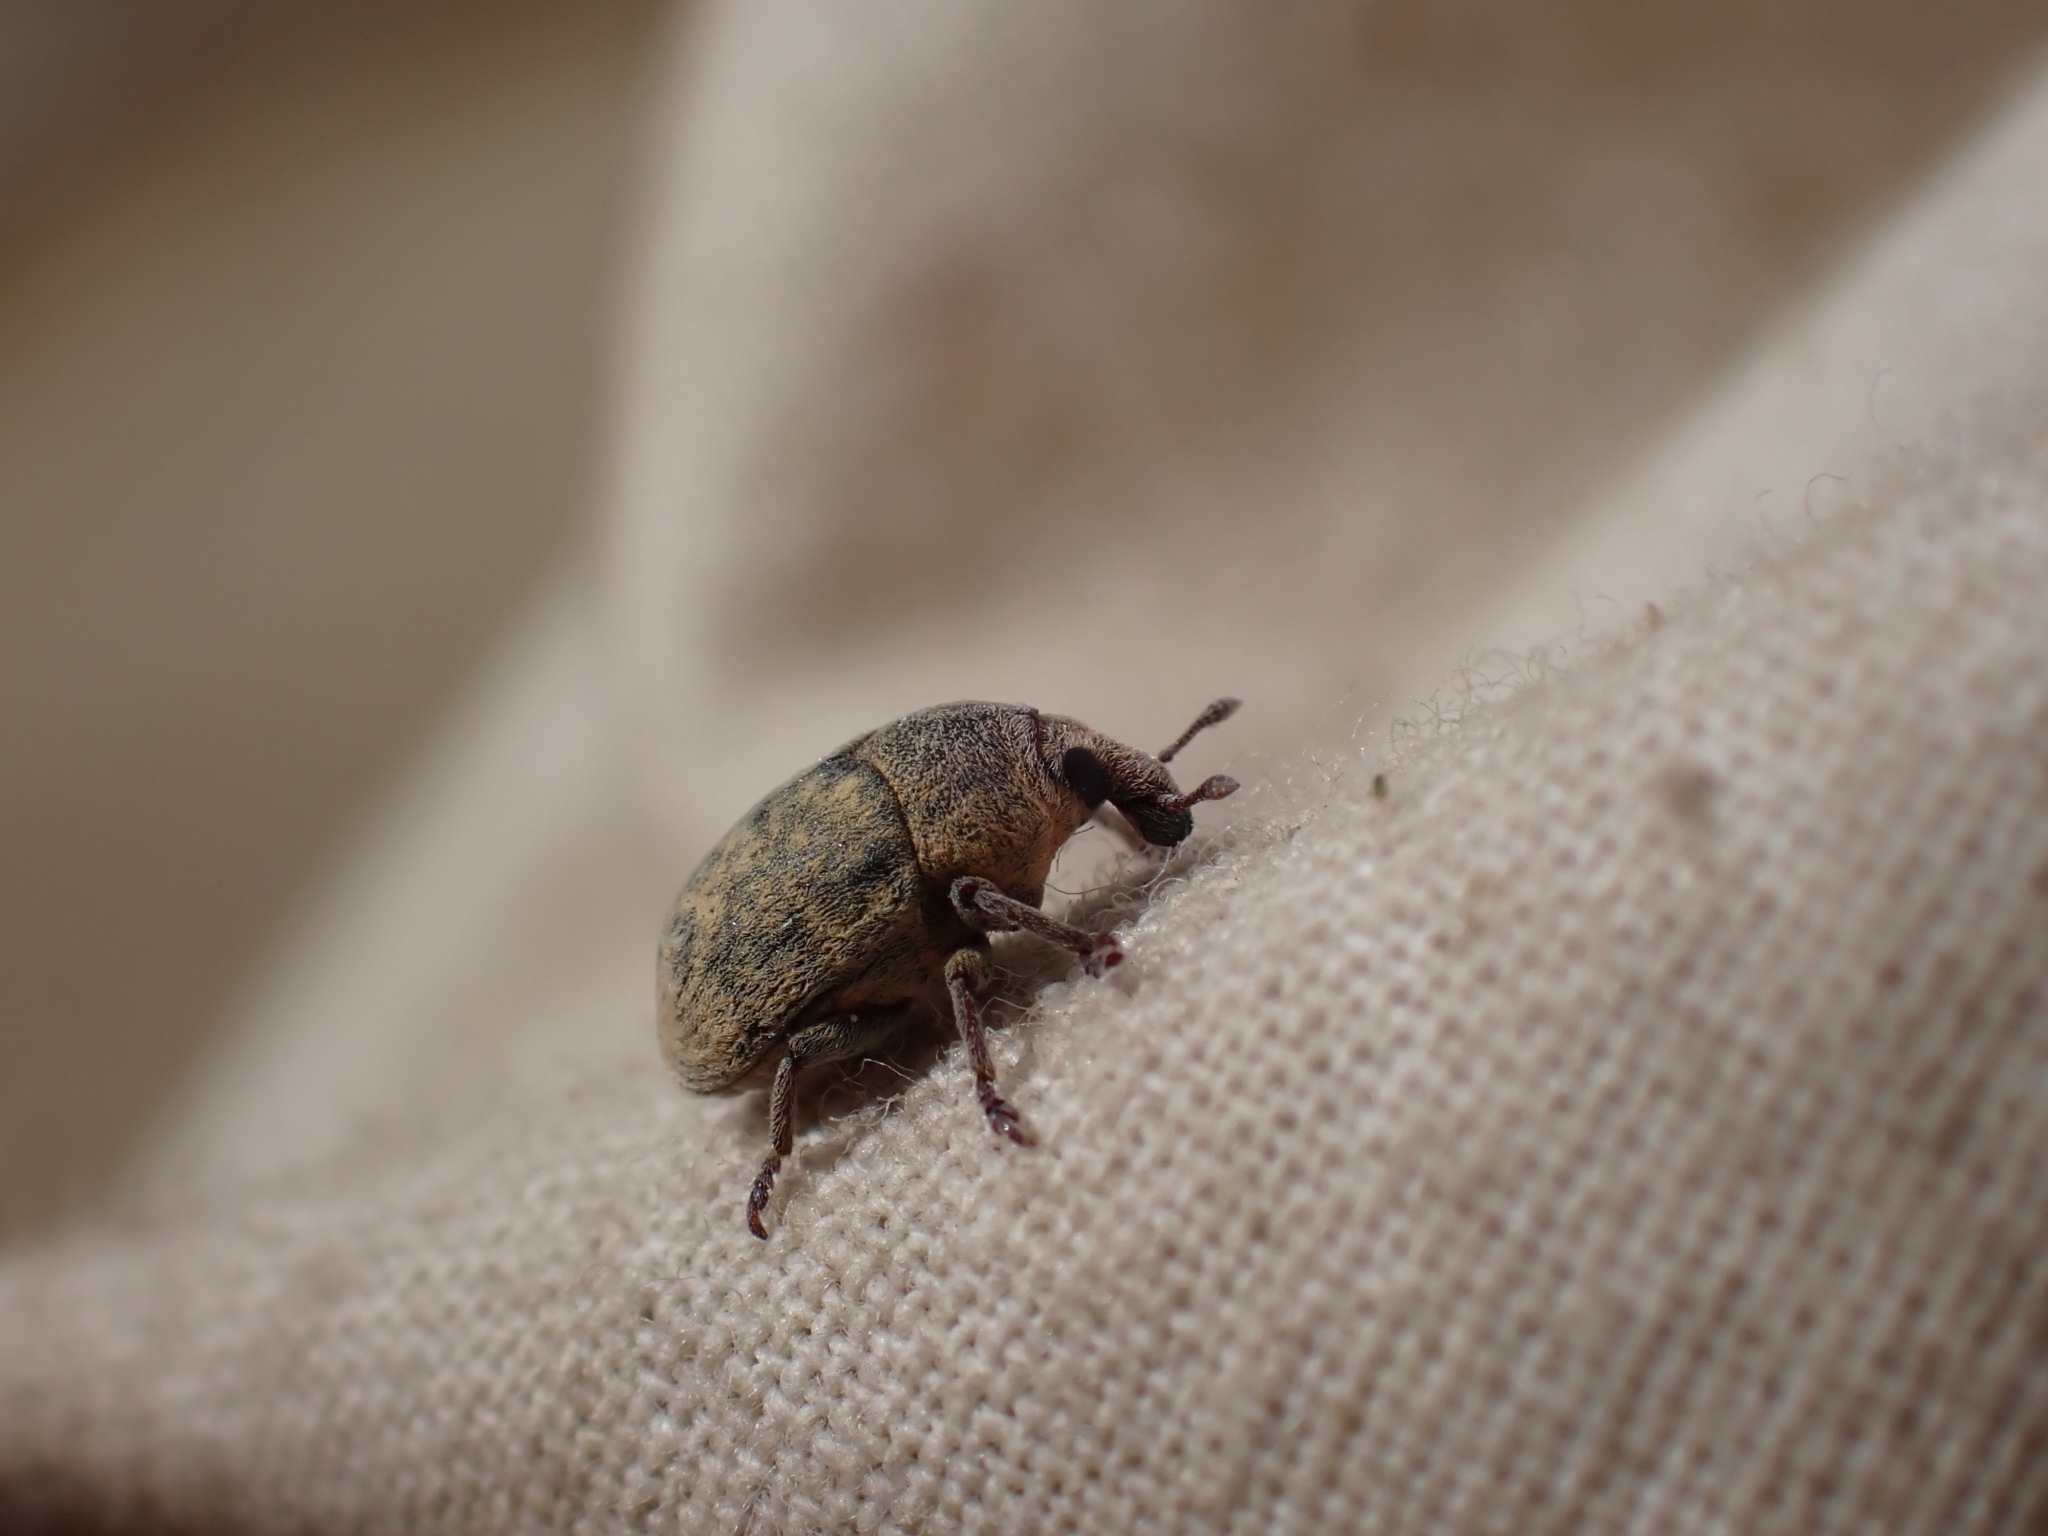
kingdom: Animalia
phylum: Arthropoda
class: Insecta
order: Coleoptera
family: Curculionidae
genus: Larinus
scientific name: Larinus minutus
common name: Weevil
